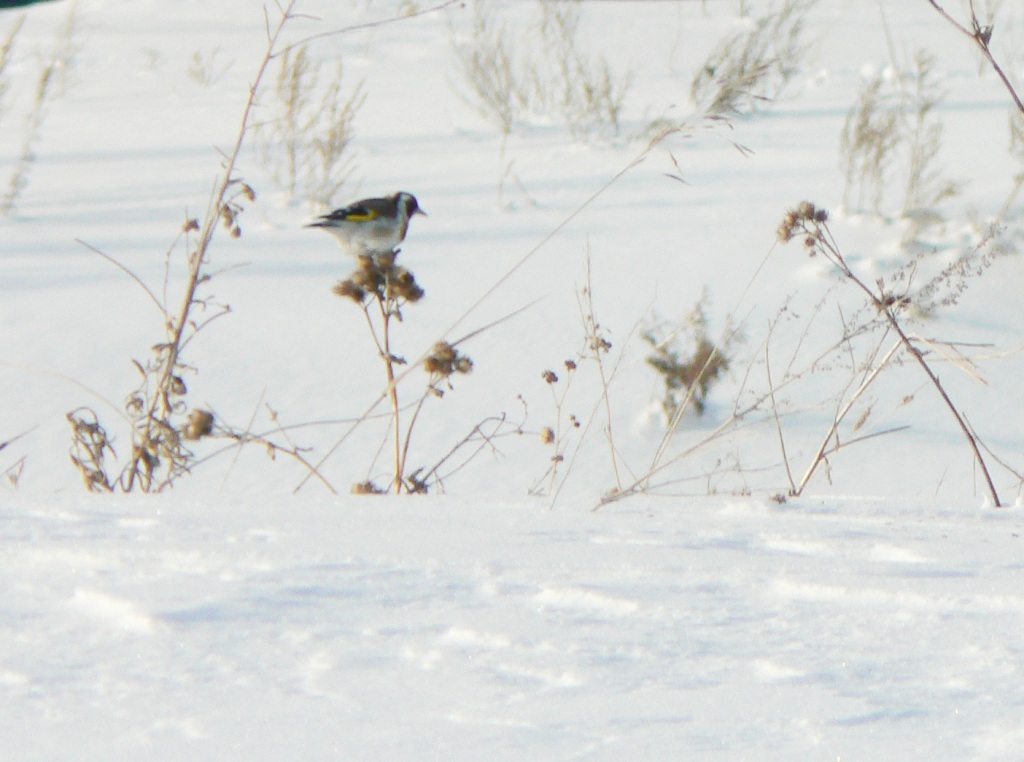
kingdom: Animalia
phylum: Chordata
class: Aves
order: Passeriformes
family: Fringillidae
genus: Carduelis
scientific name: Carduelis carduelis
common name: European goldfinch
